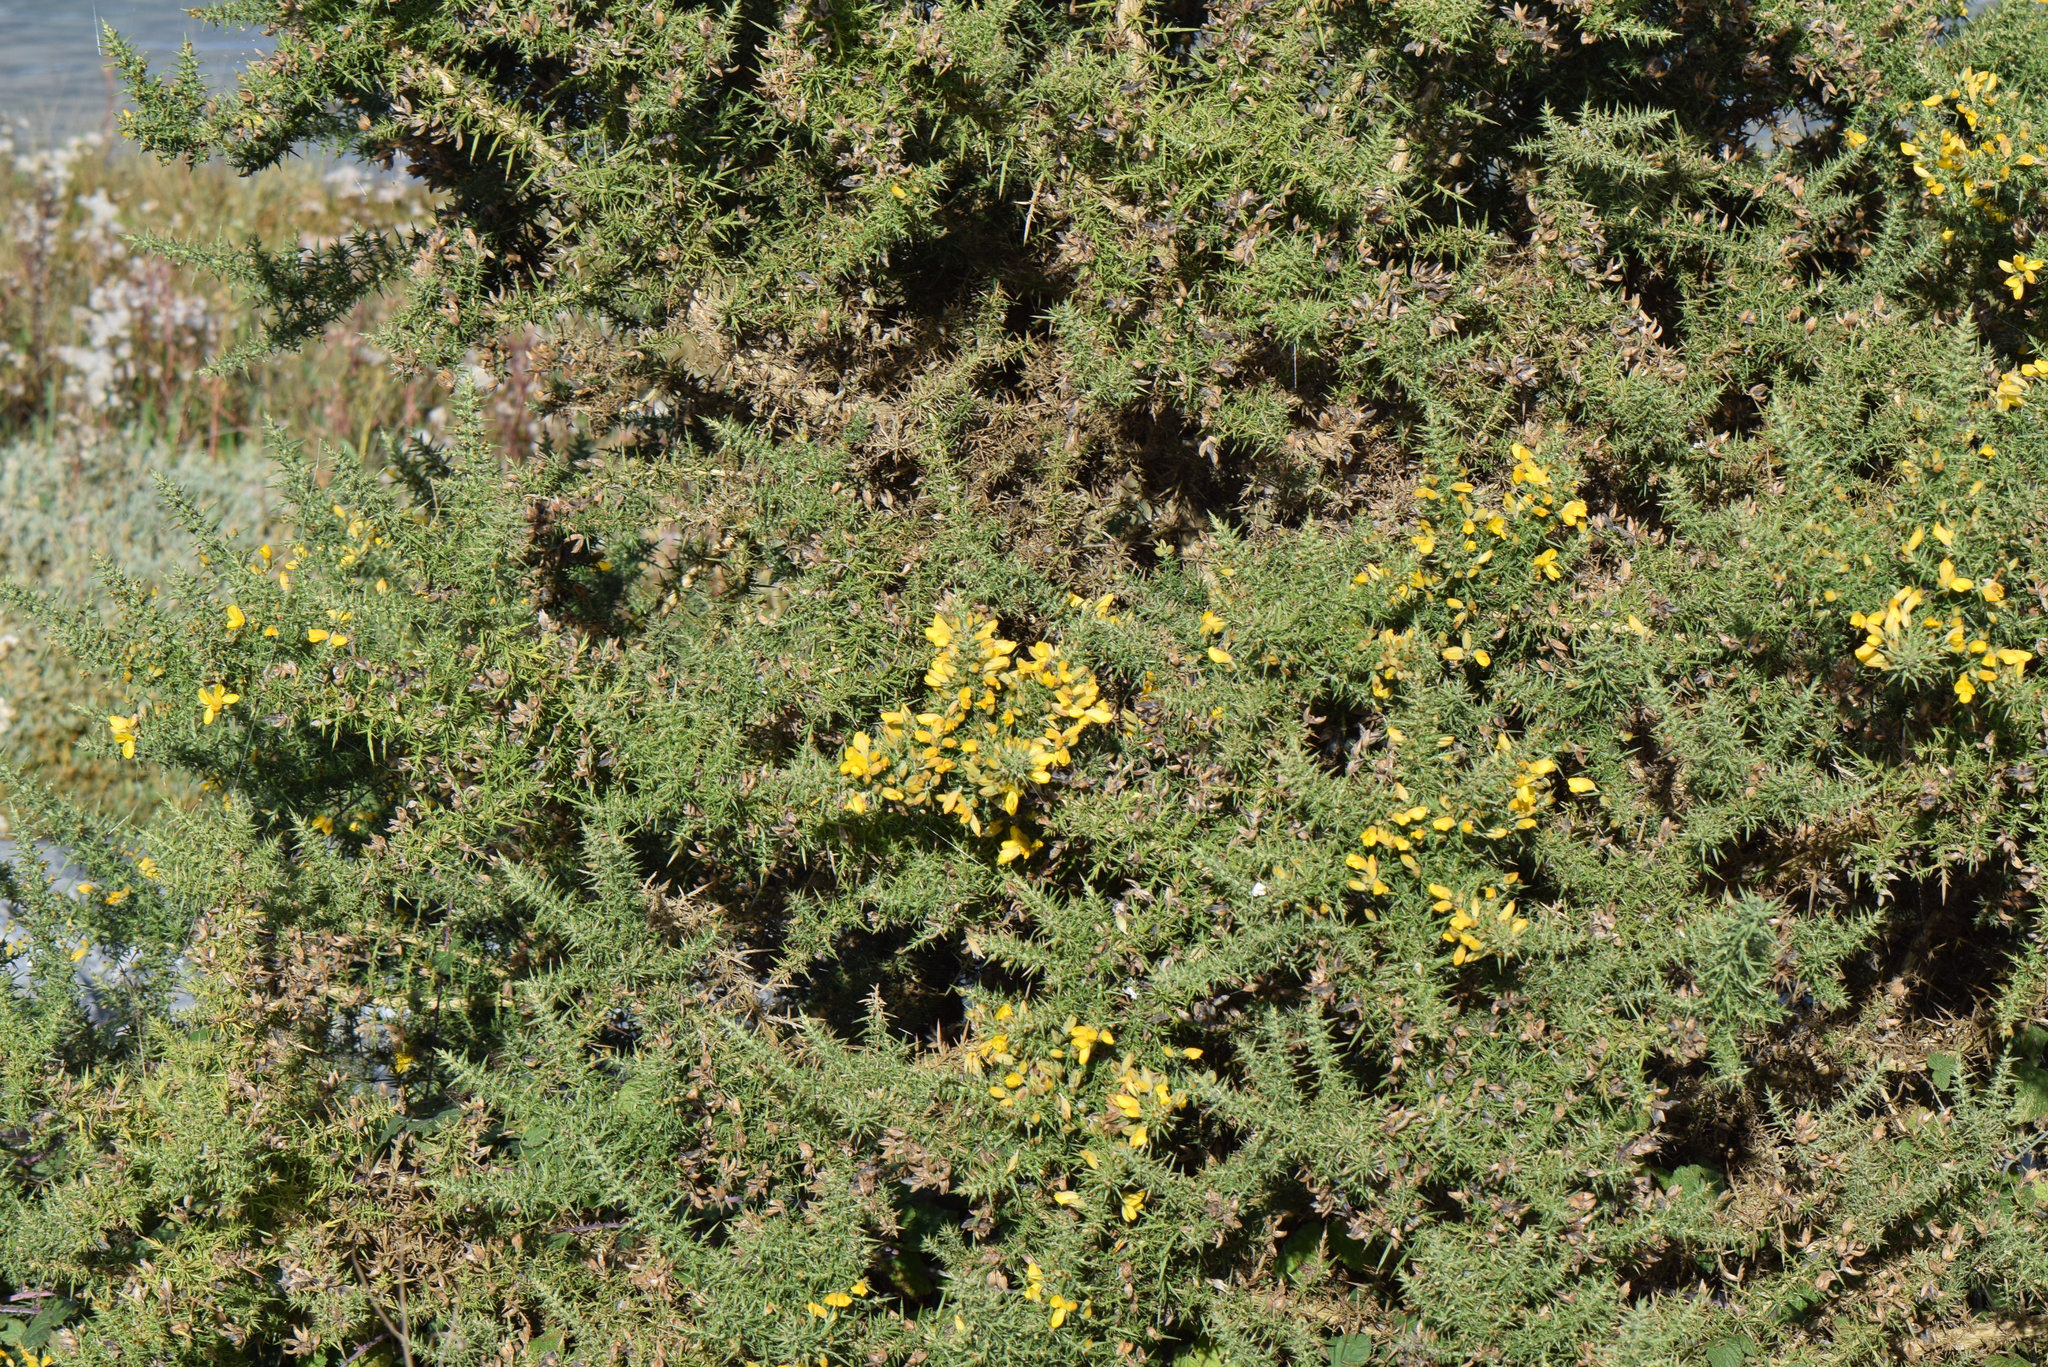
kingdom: Plantae
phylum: Tracheophyta
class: Magnoliopsida
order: Fabales
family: Fabaceae
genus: Ulex
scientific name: Ulex europaeus
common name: Common gorse
